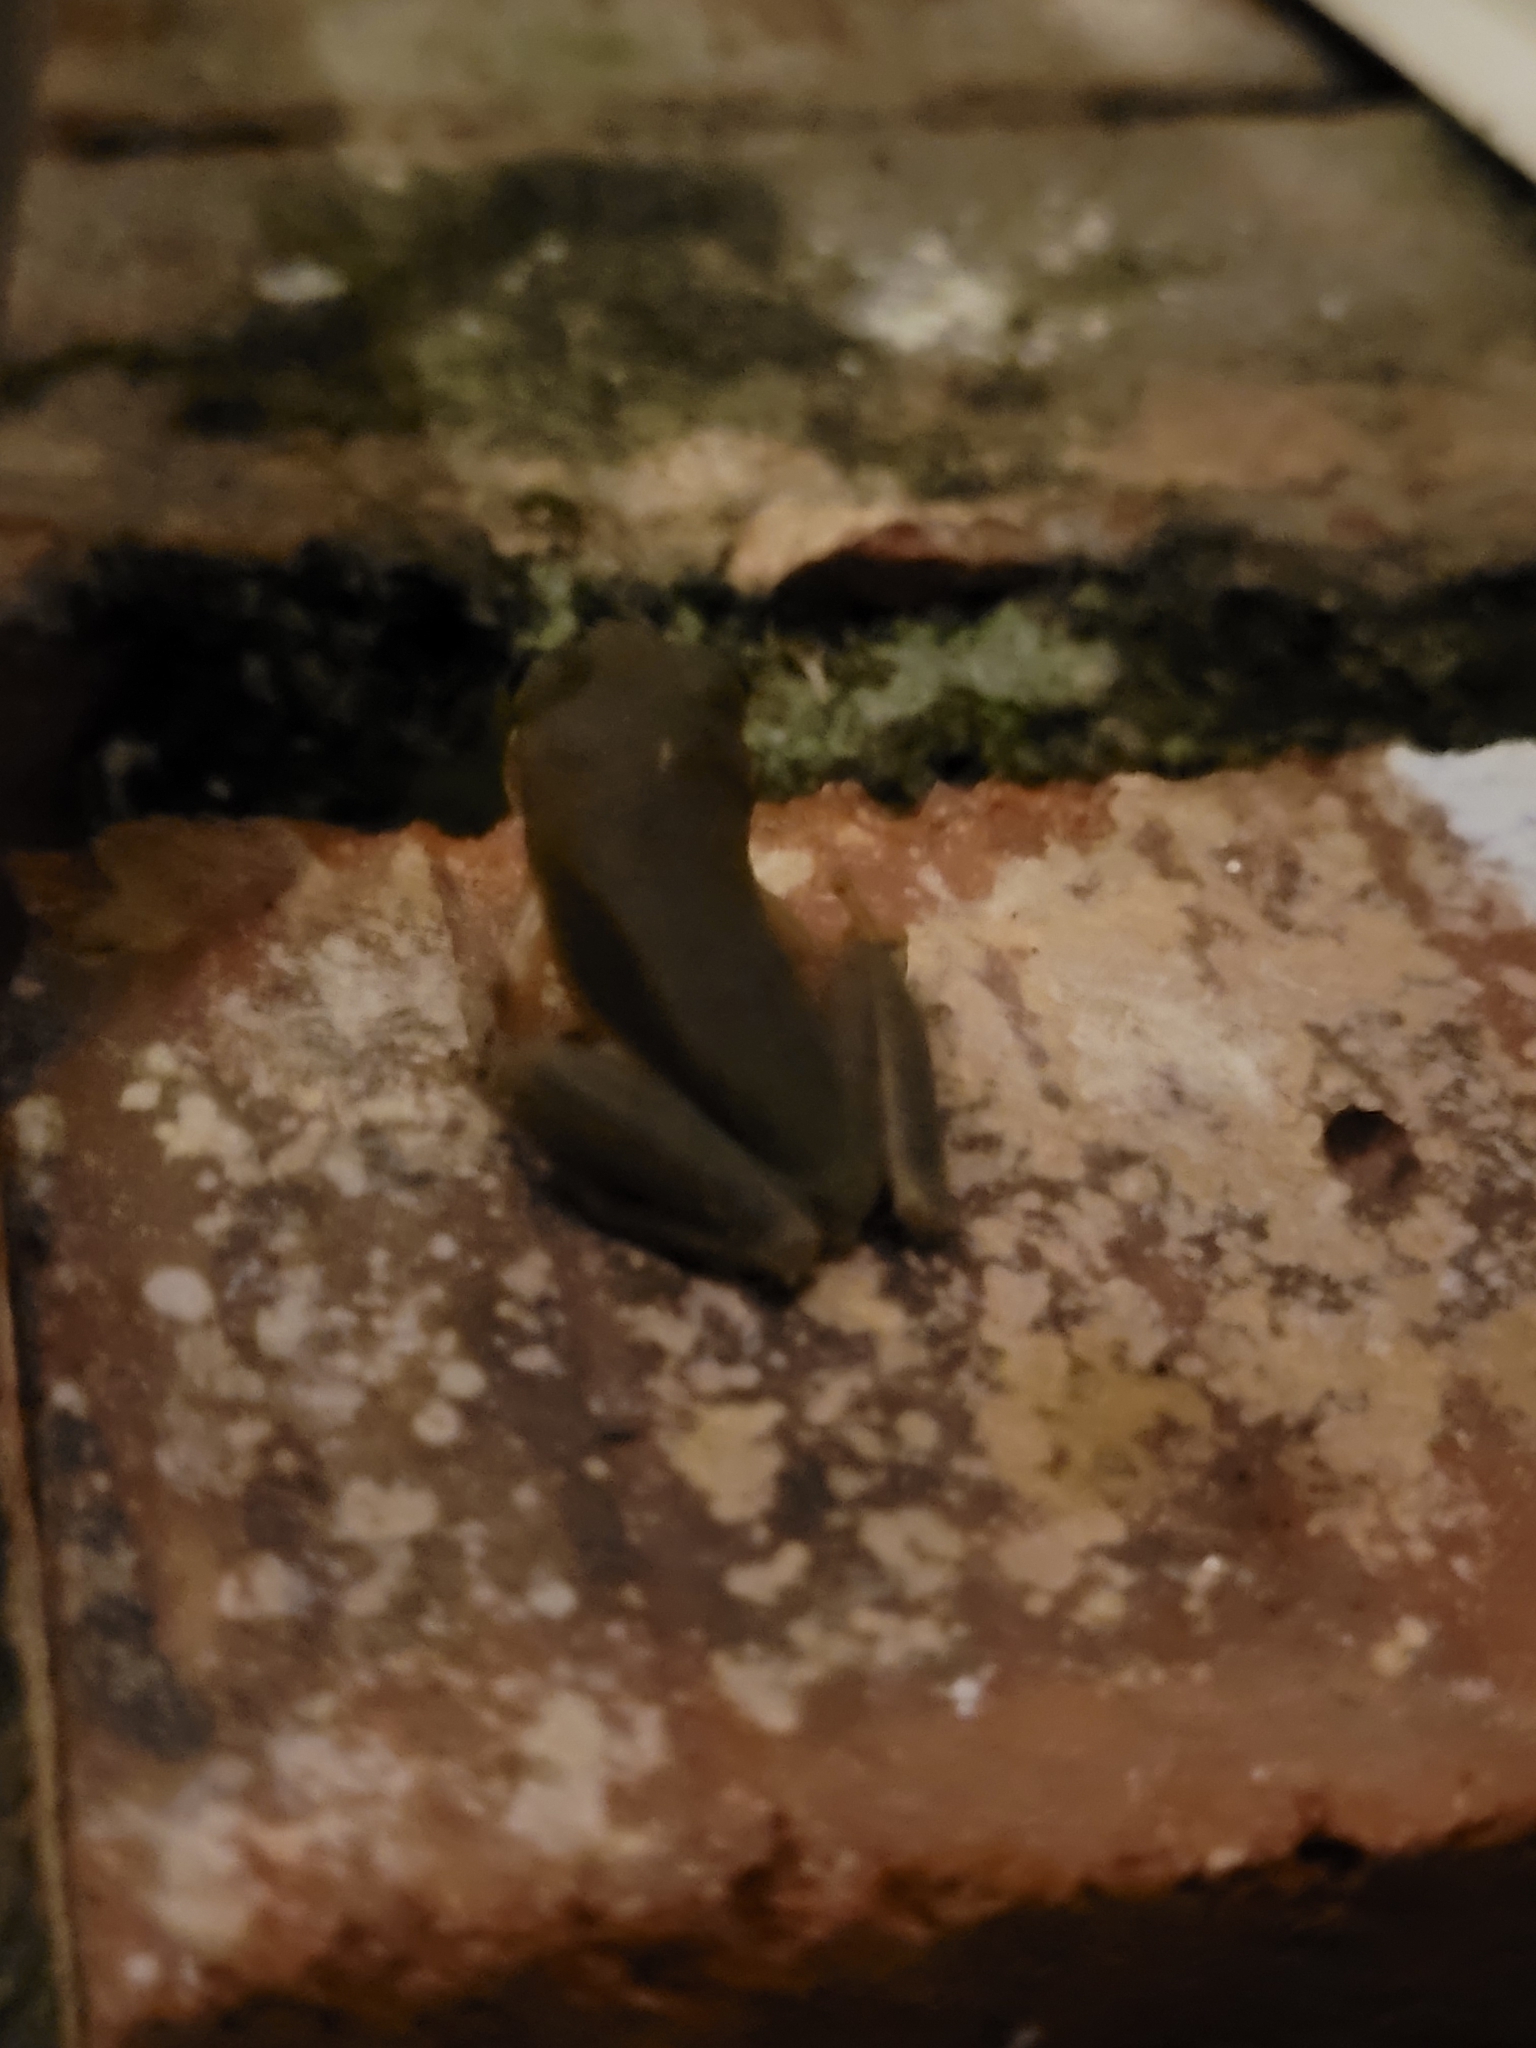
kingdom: Animalia
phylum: Chordata
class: Amphibia
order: Anura
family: Hylidae
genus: Dryophytes
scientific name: Dryophytes squirellus
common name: Squirrel treefrog
